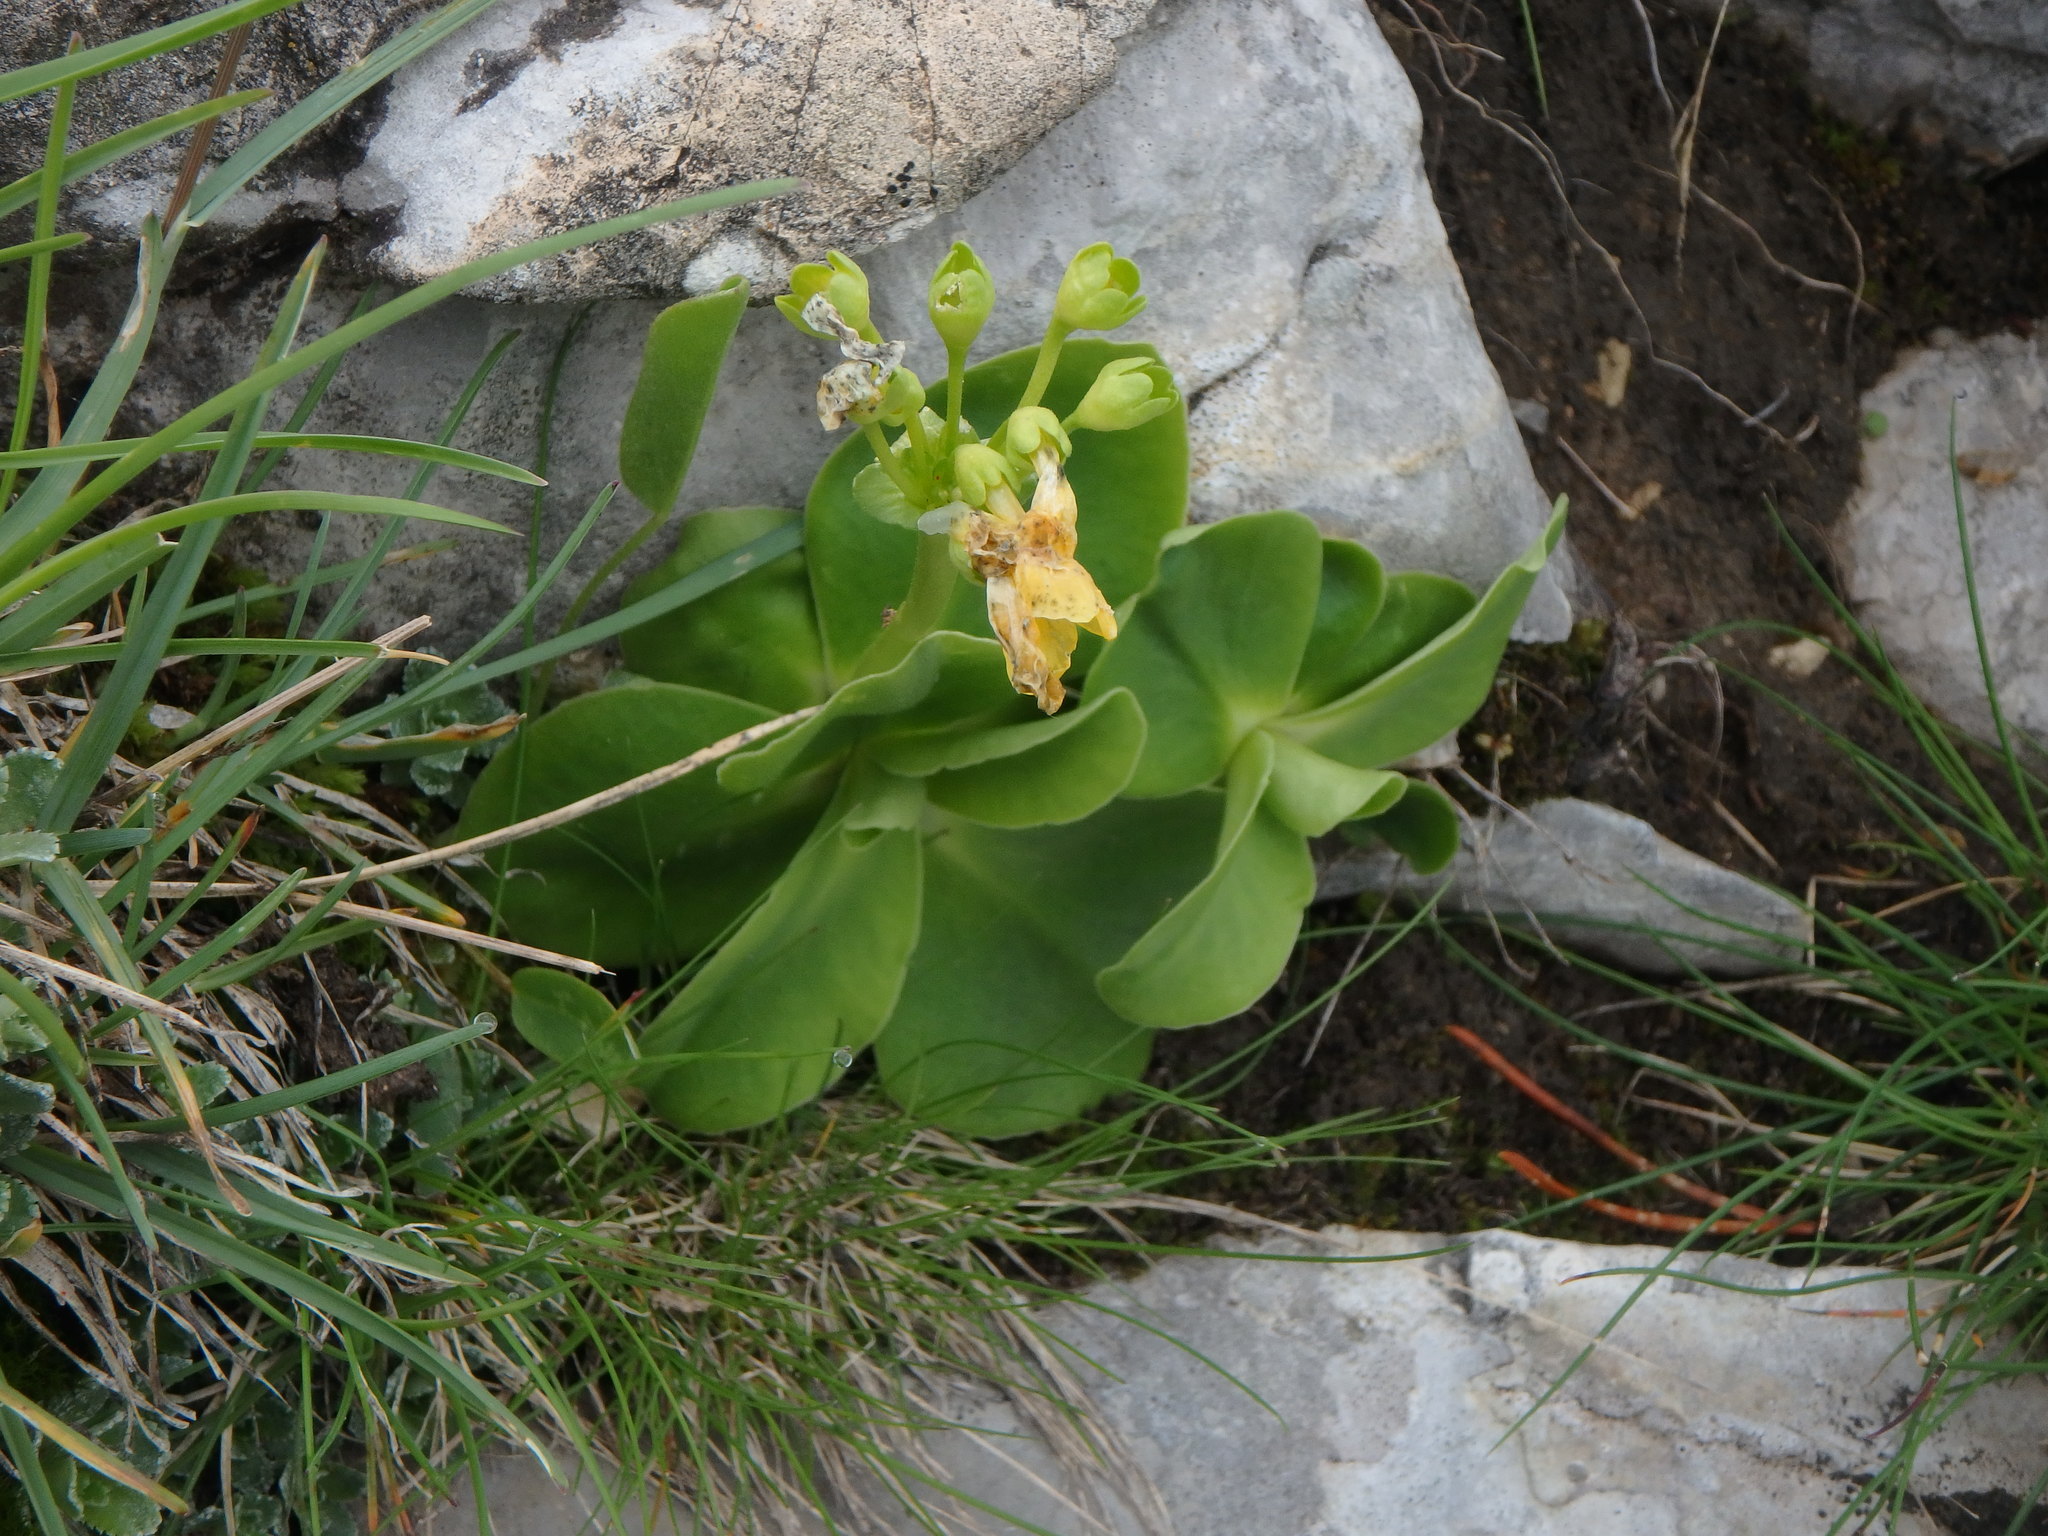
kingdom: Plantae
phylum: Tracheophyta
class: Magnoliopsida
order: Ericales
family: Primulaceae
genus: Primula
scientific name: Primula auricula
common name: Auricula
